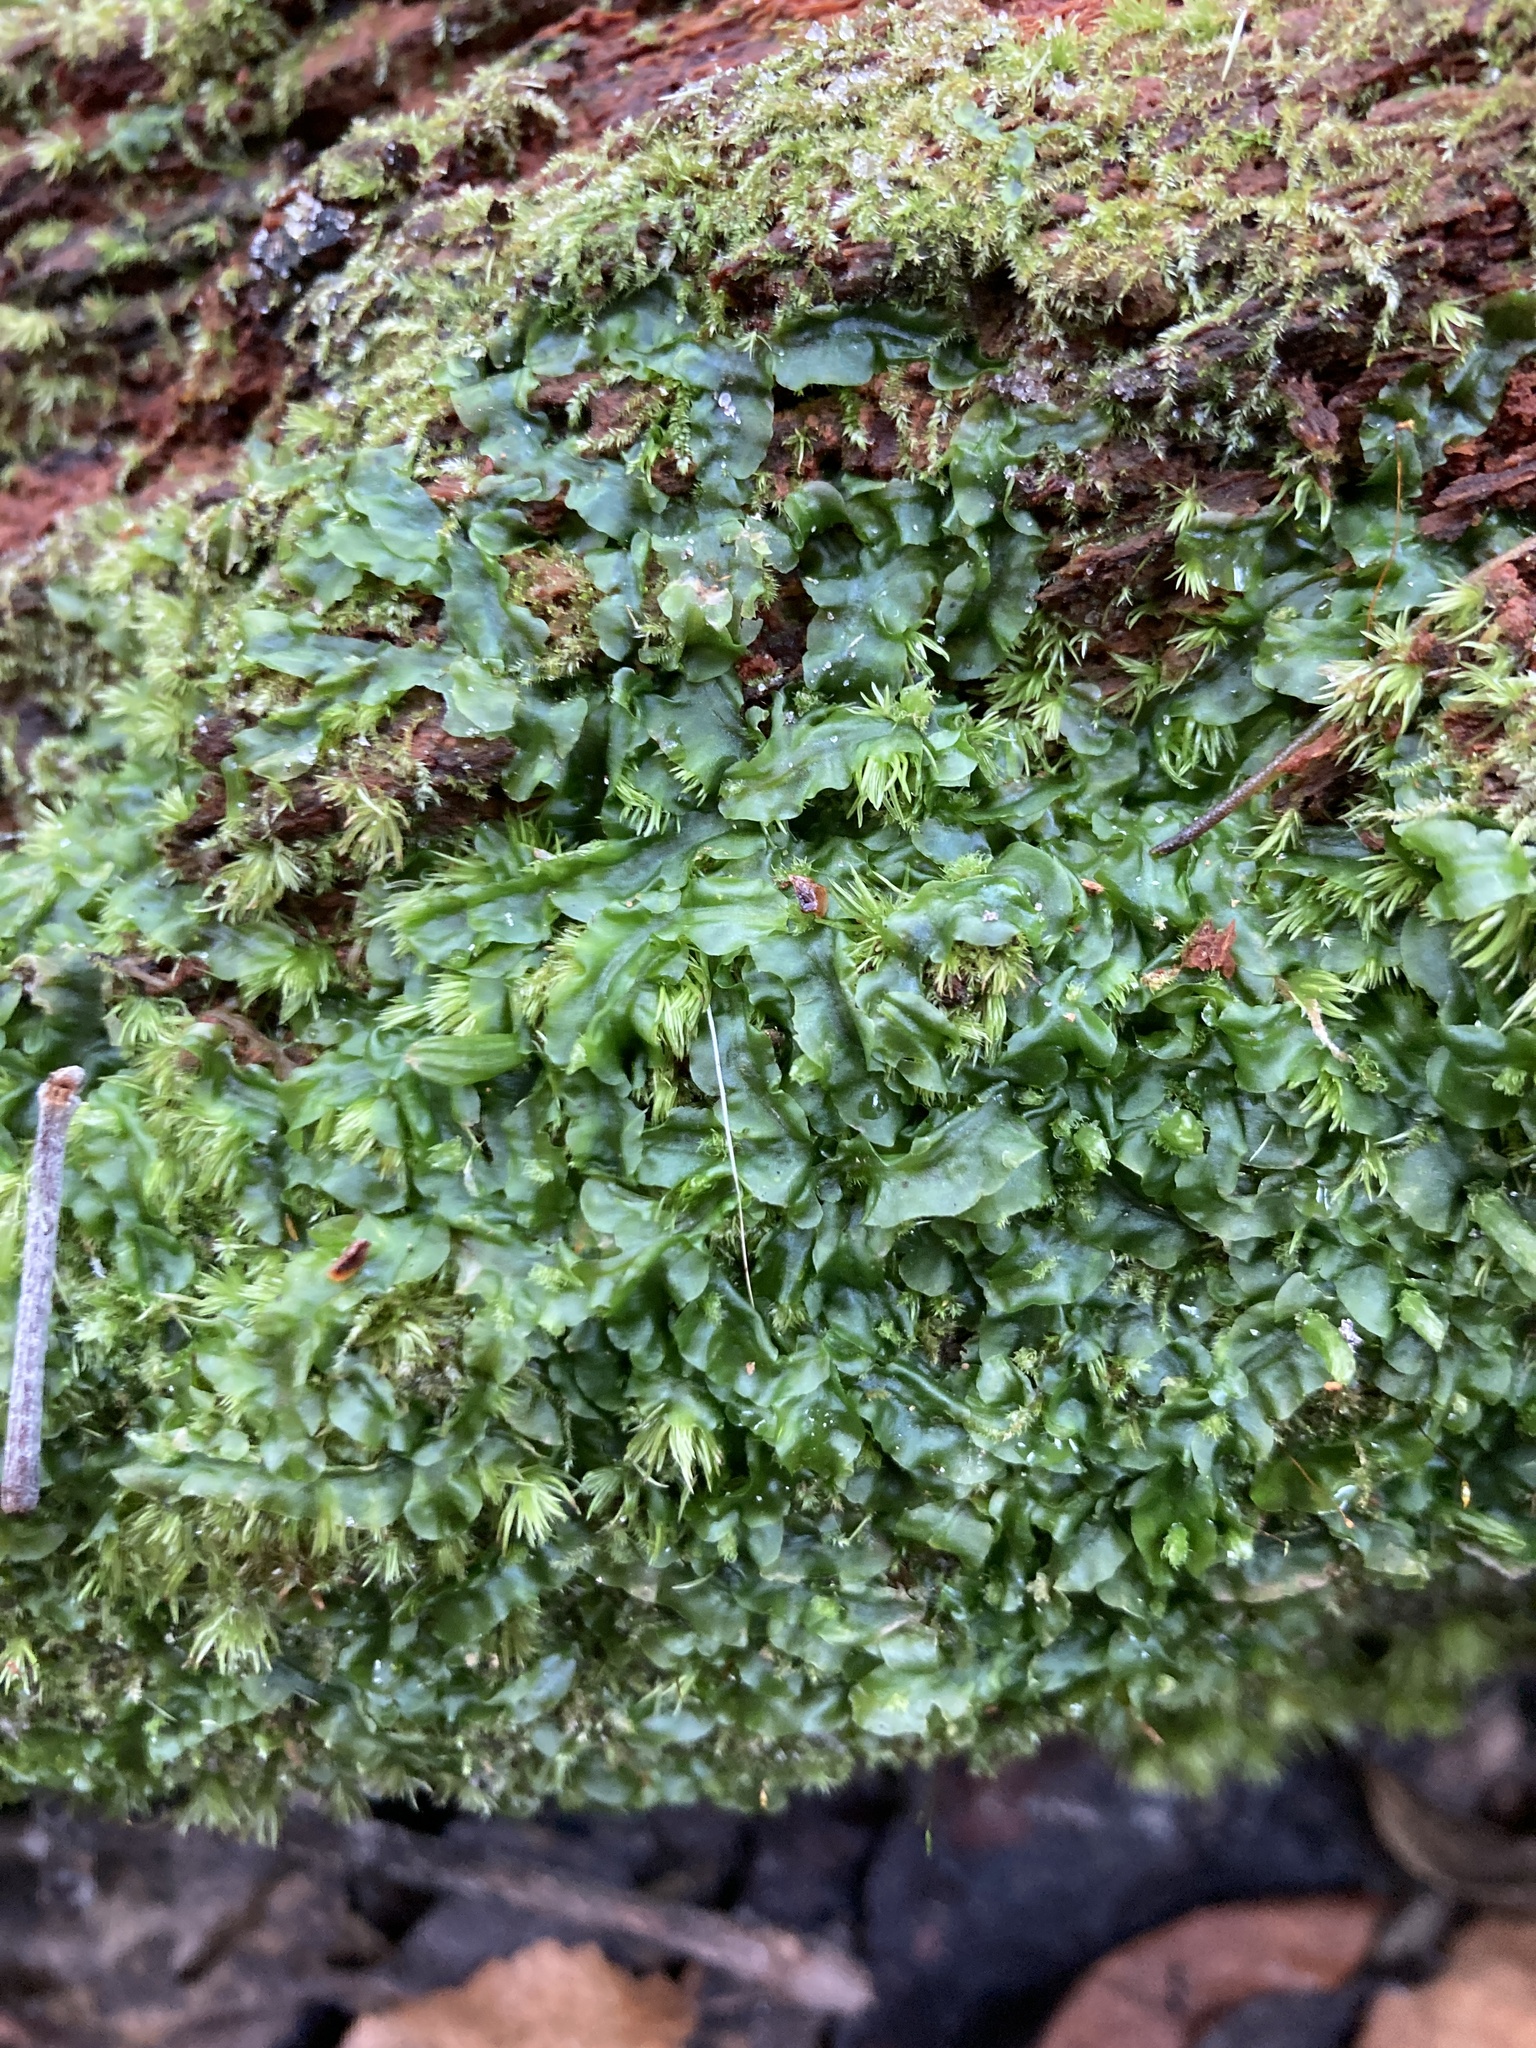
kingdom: Plantae
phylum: Marchantiophyta
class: Jungermanniopsida
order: Pallaviciniales
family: Pallaviciniaceae
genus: Pallavicinia
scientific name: Pallavicinia lyellii
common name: Veilwort
